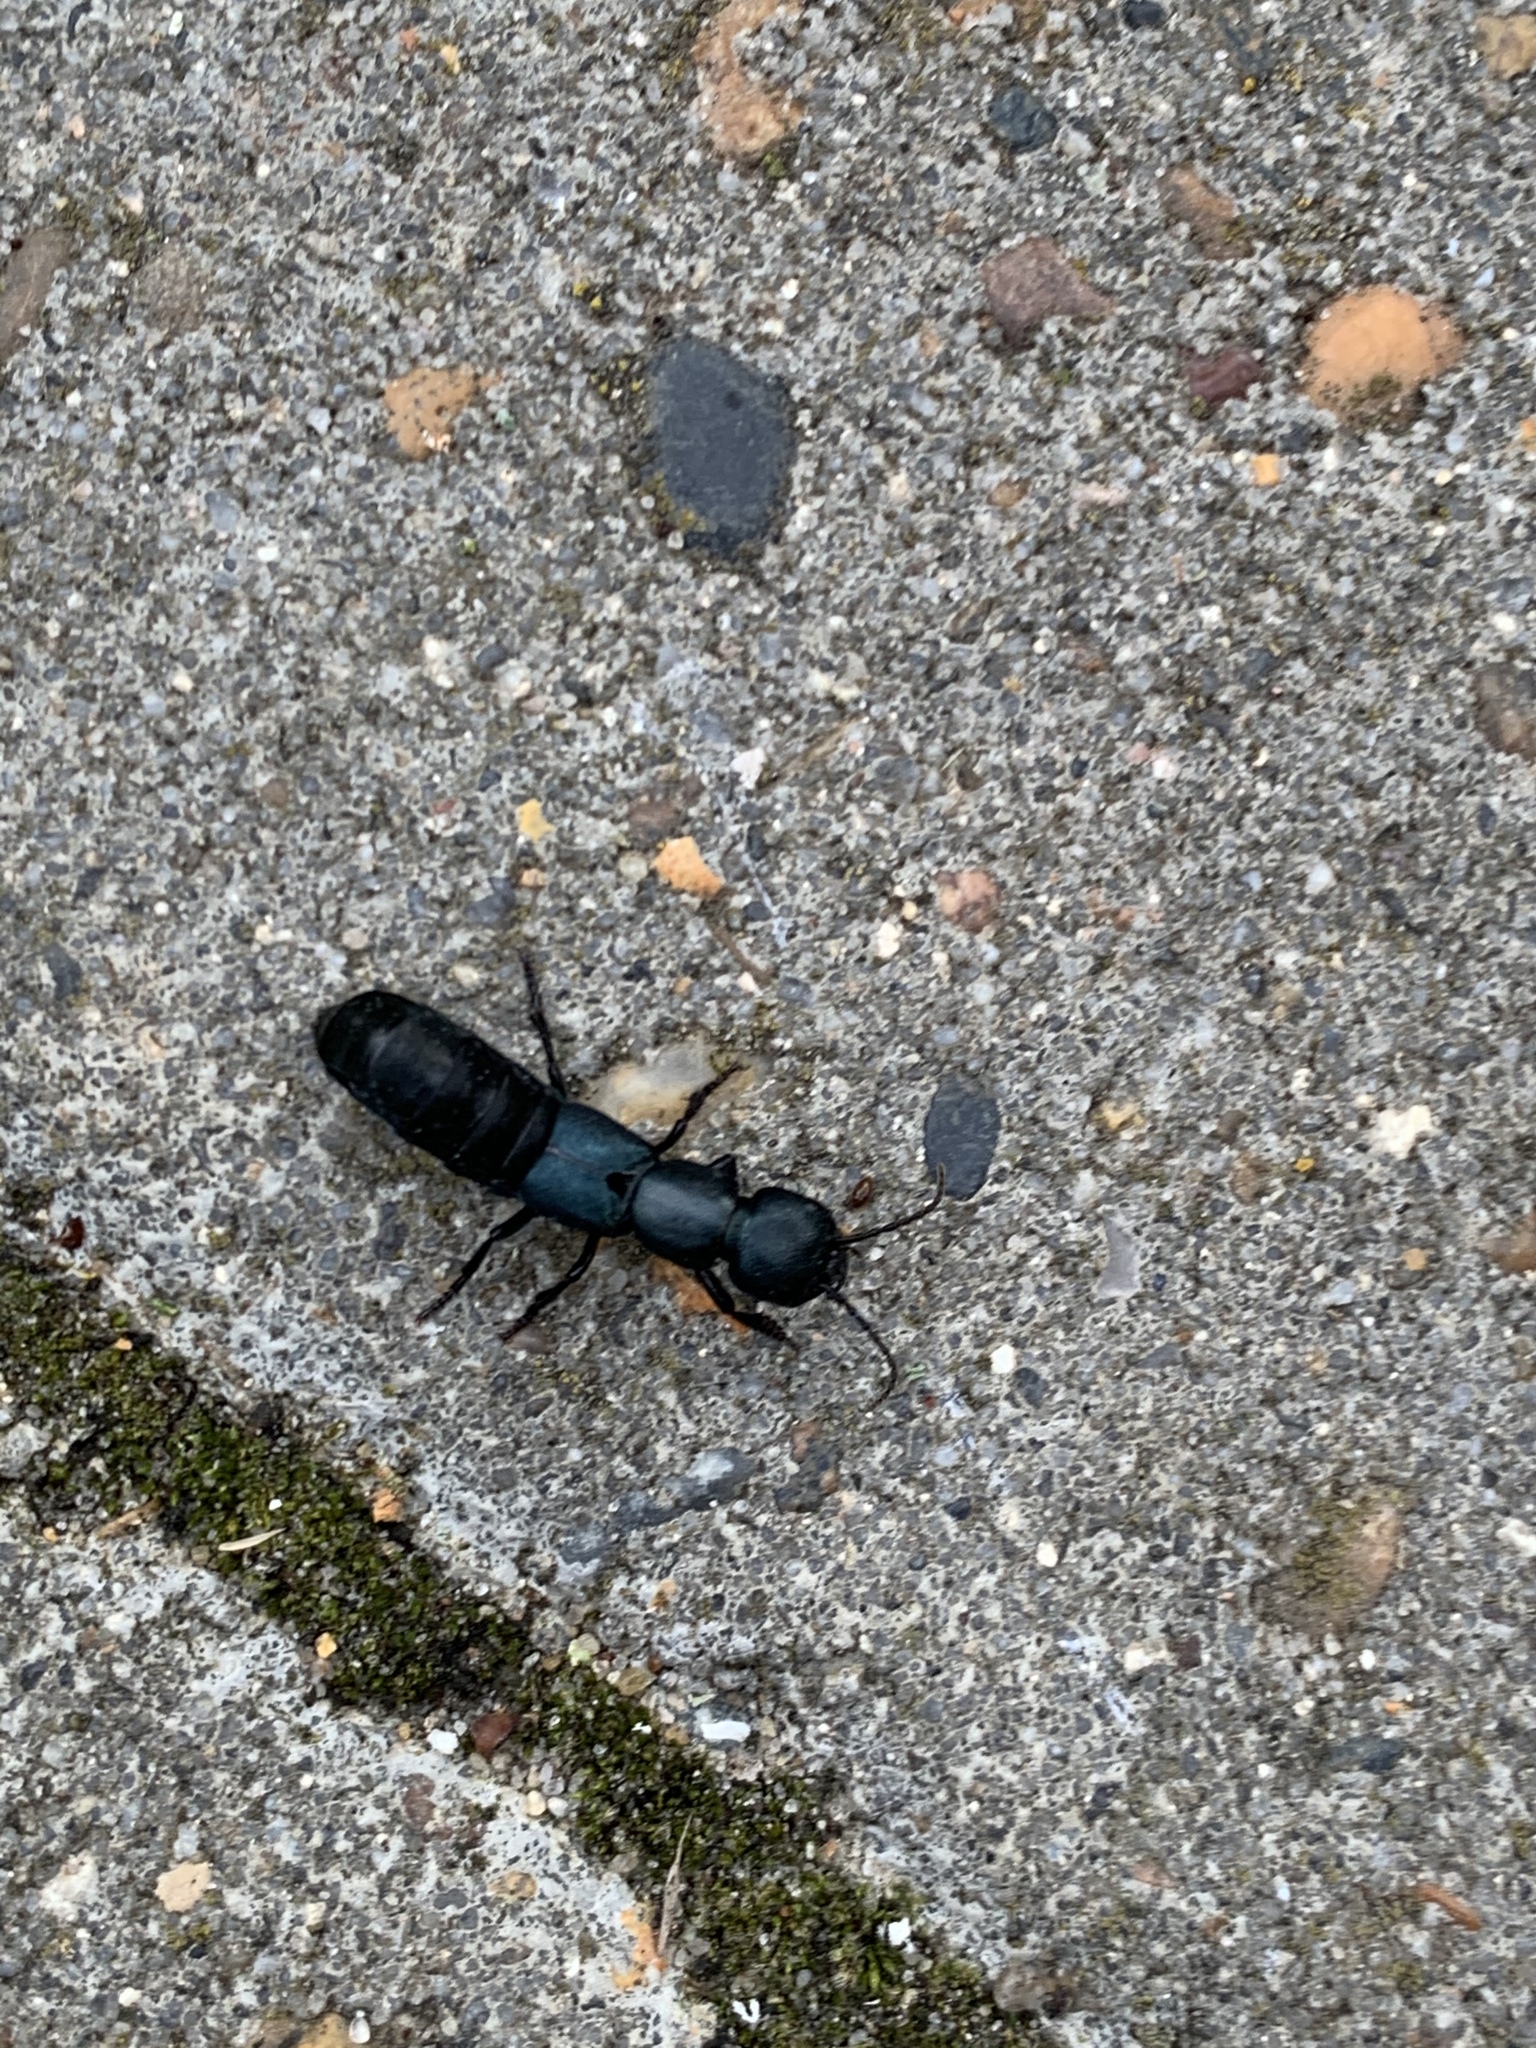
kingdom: Animalia
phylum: Arthropoda
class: Insecta
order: Coleoptera
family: Staphylinidae
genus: Ocypus
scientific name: Ocypus ophthalmicus
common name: Blue rove-beetle
